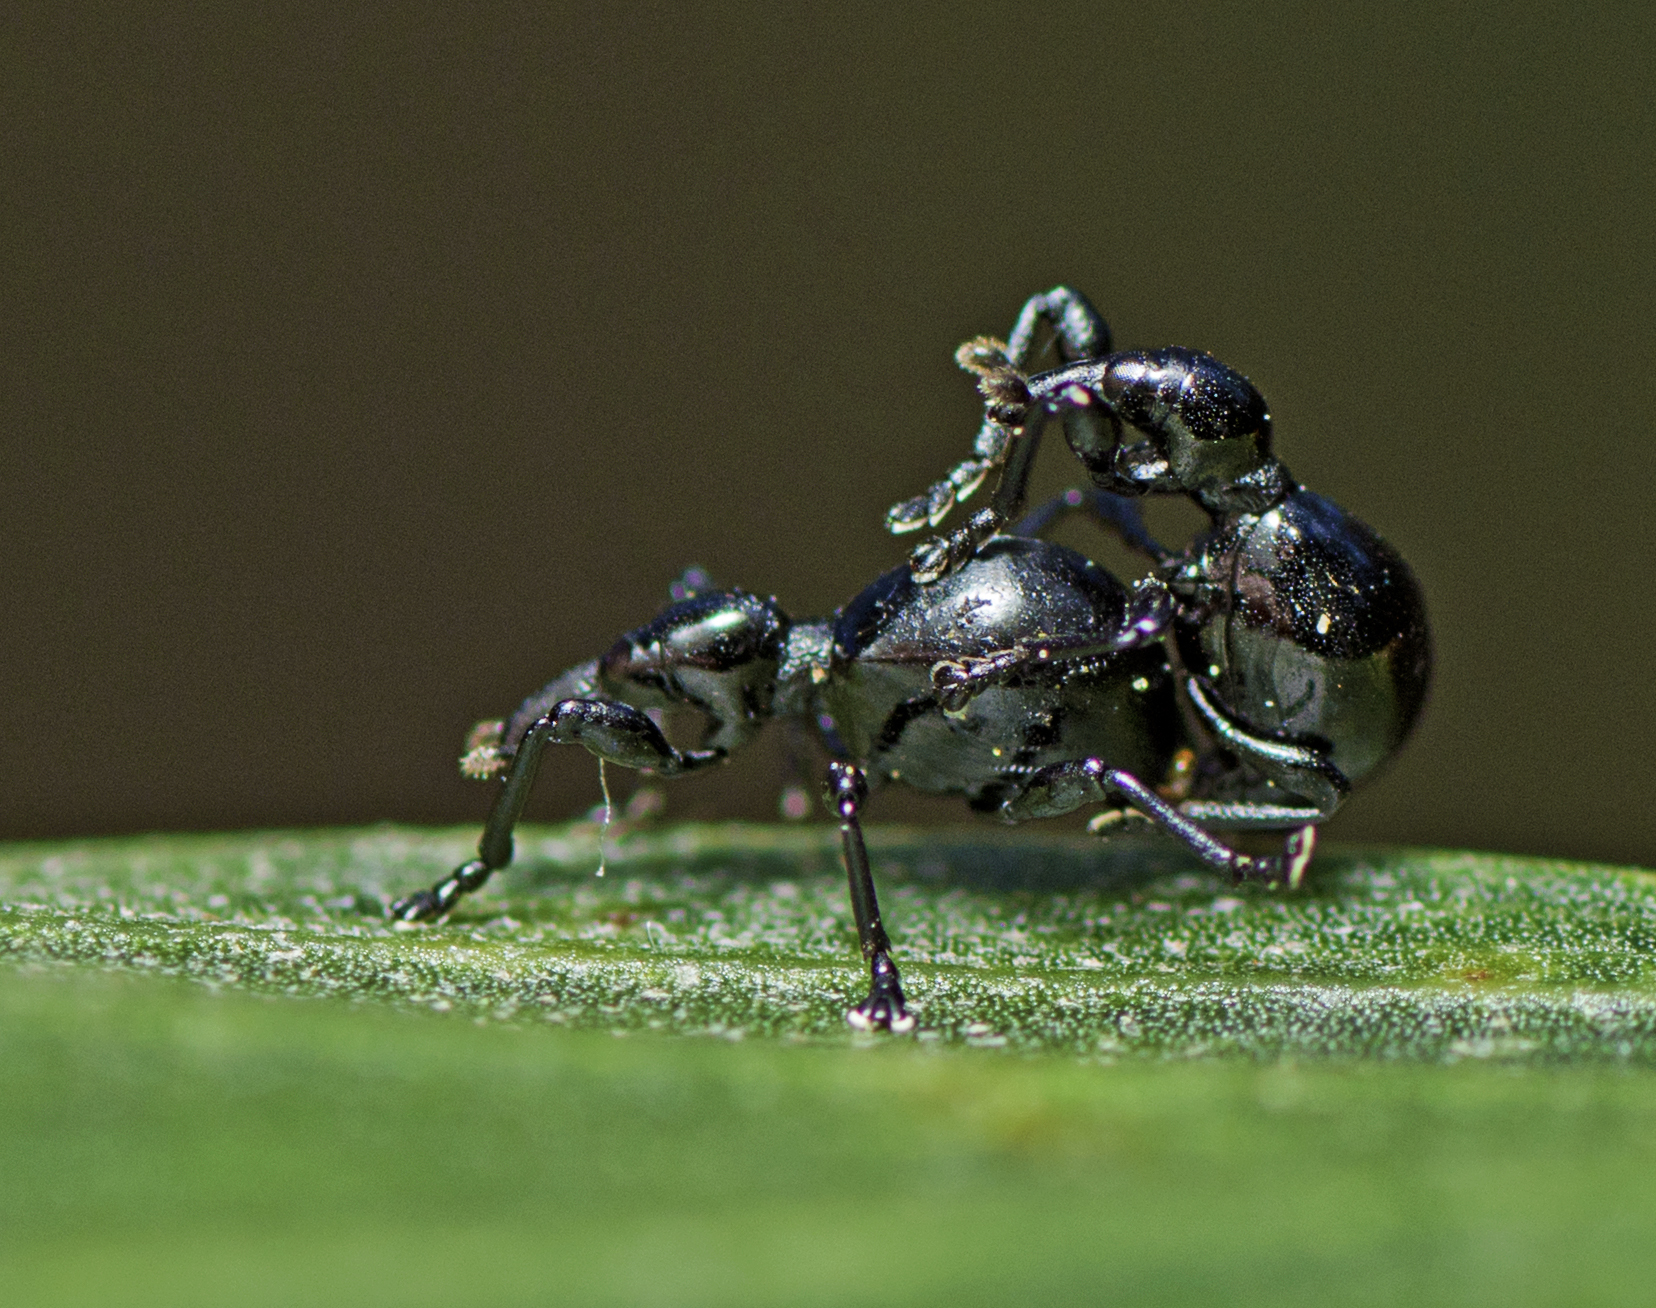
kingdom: Animalia
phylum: Arthropoda
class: Insecta
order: Coleoptera
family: Brentidae
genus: Rhynolaccus
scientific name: Rhynolaccus formicarius
